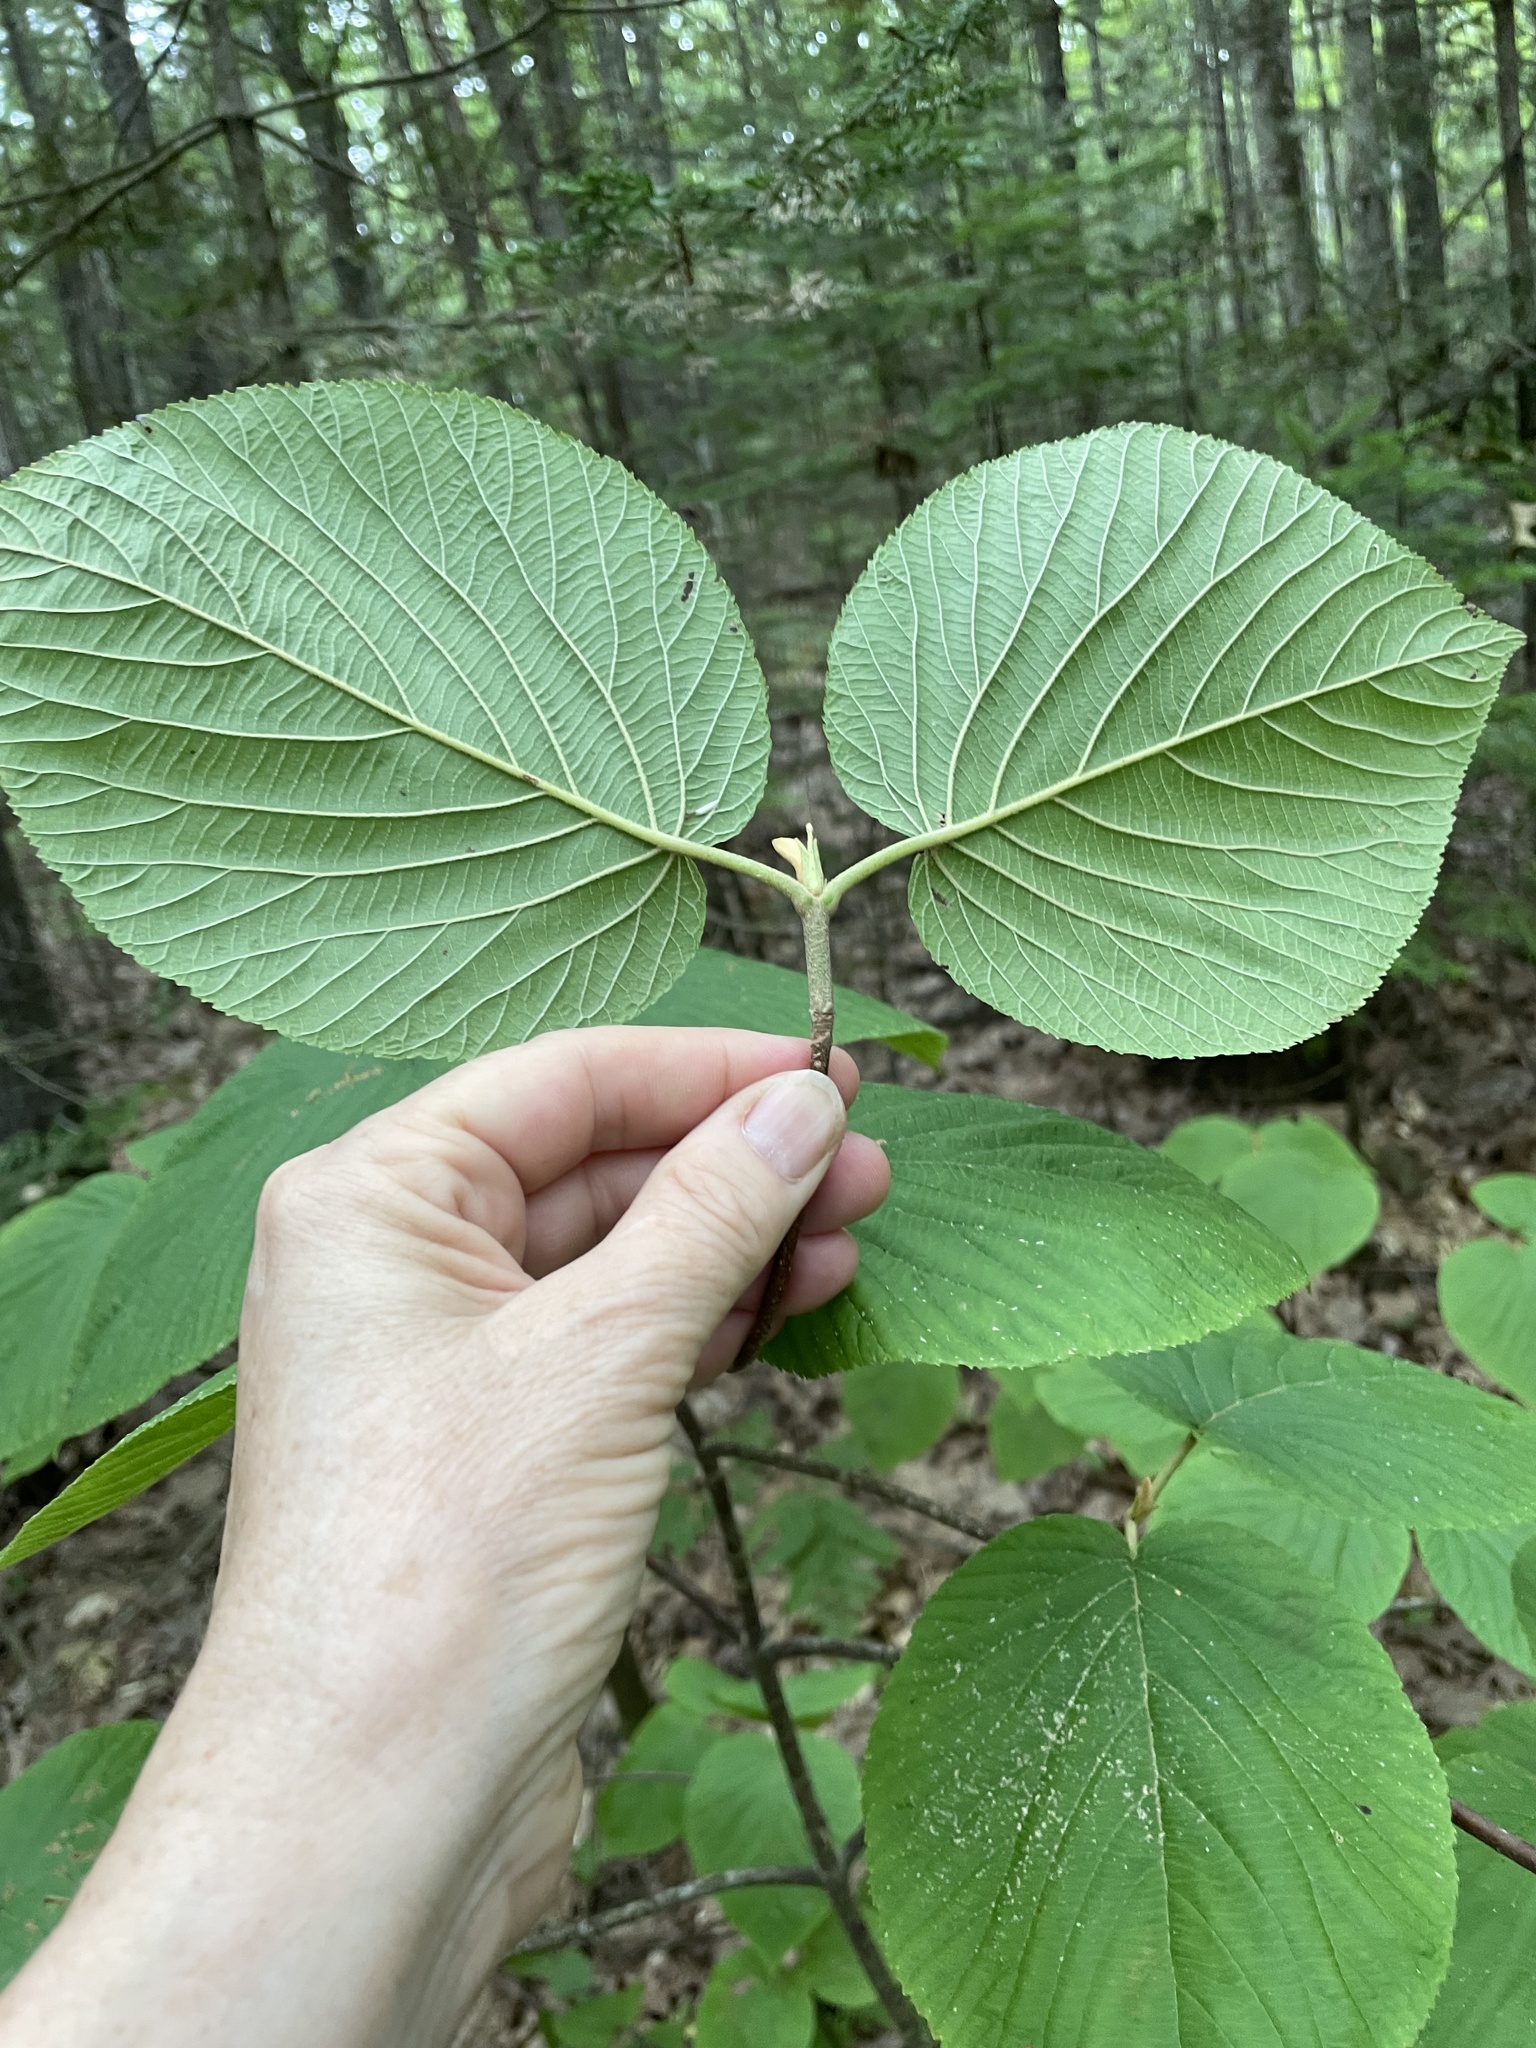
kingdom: Plantae
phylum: Tracheophyta
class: Magnoliopsida
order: Dipsacales
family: Viburnaceae
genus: Viburnum
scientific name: Viburnum lantanoides
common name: Hobblebush
